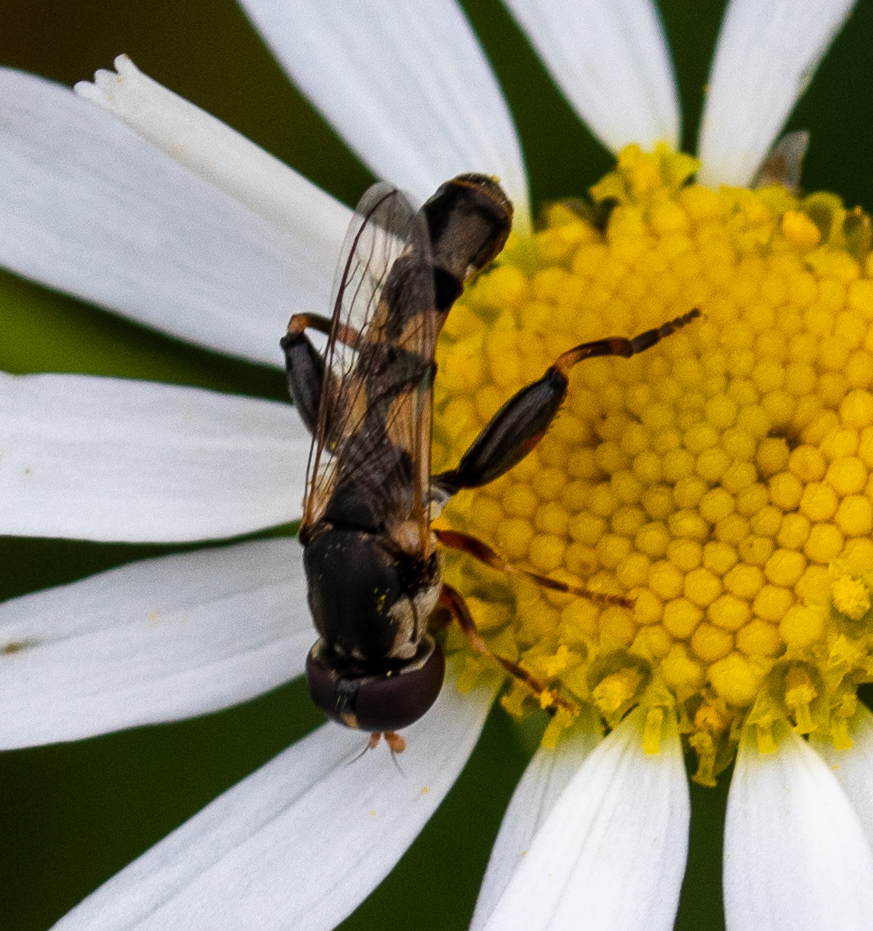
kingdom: Animalia
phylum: Arthropoda
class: Insecta
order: Diptera
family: Syrphidae
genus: Syritta
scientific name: Syritta pipiens
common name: Hover fly
